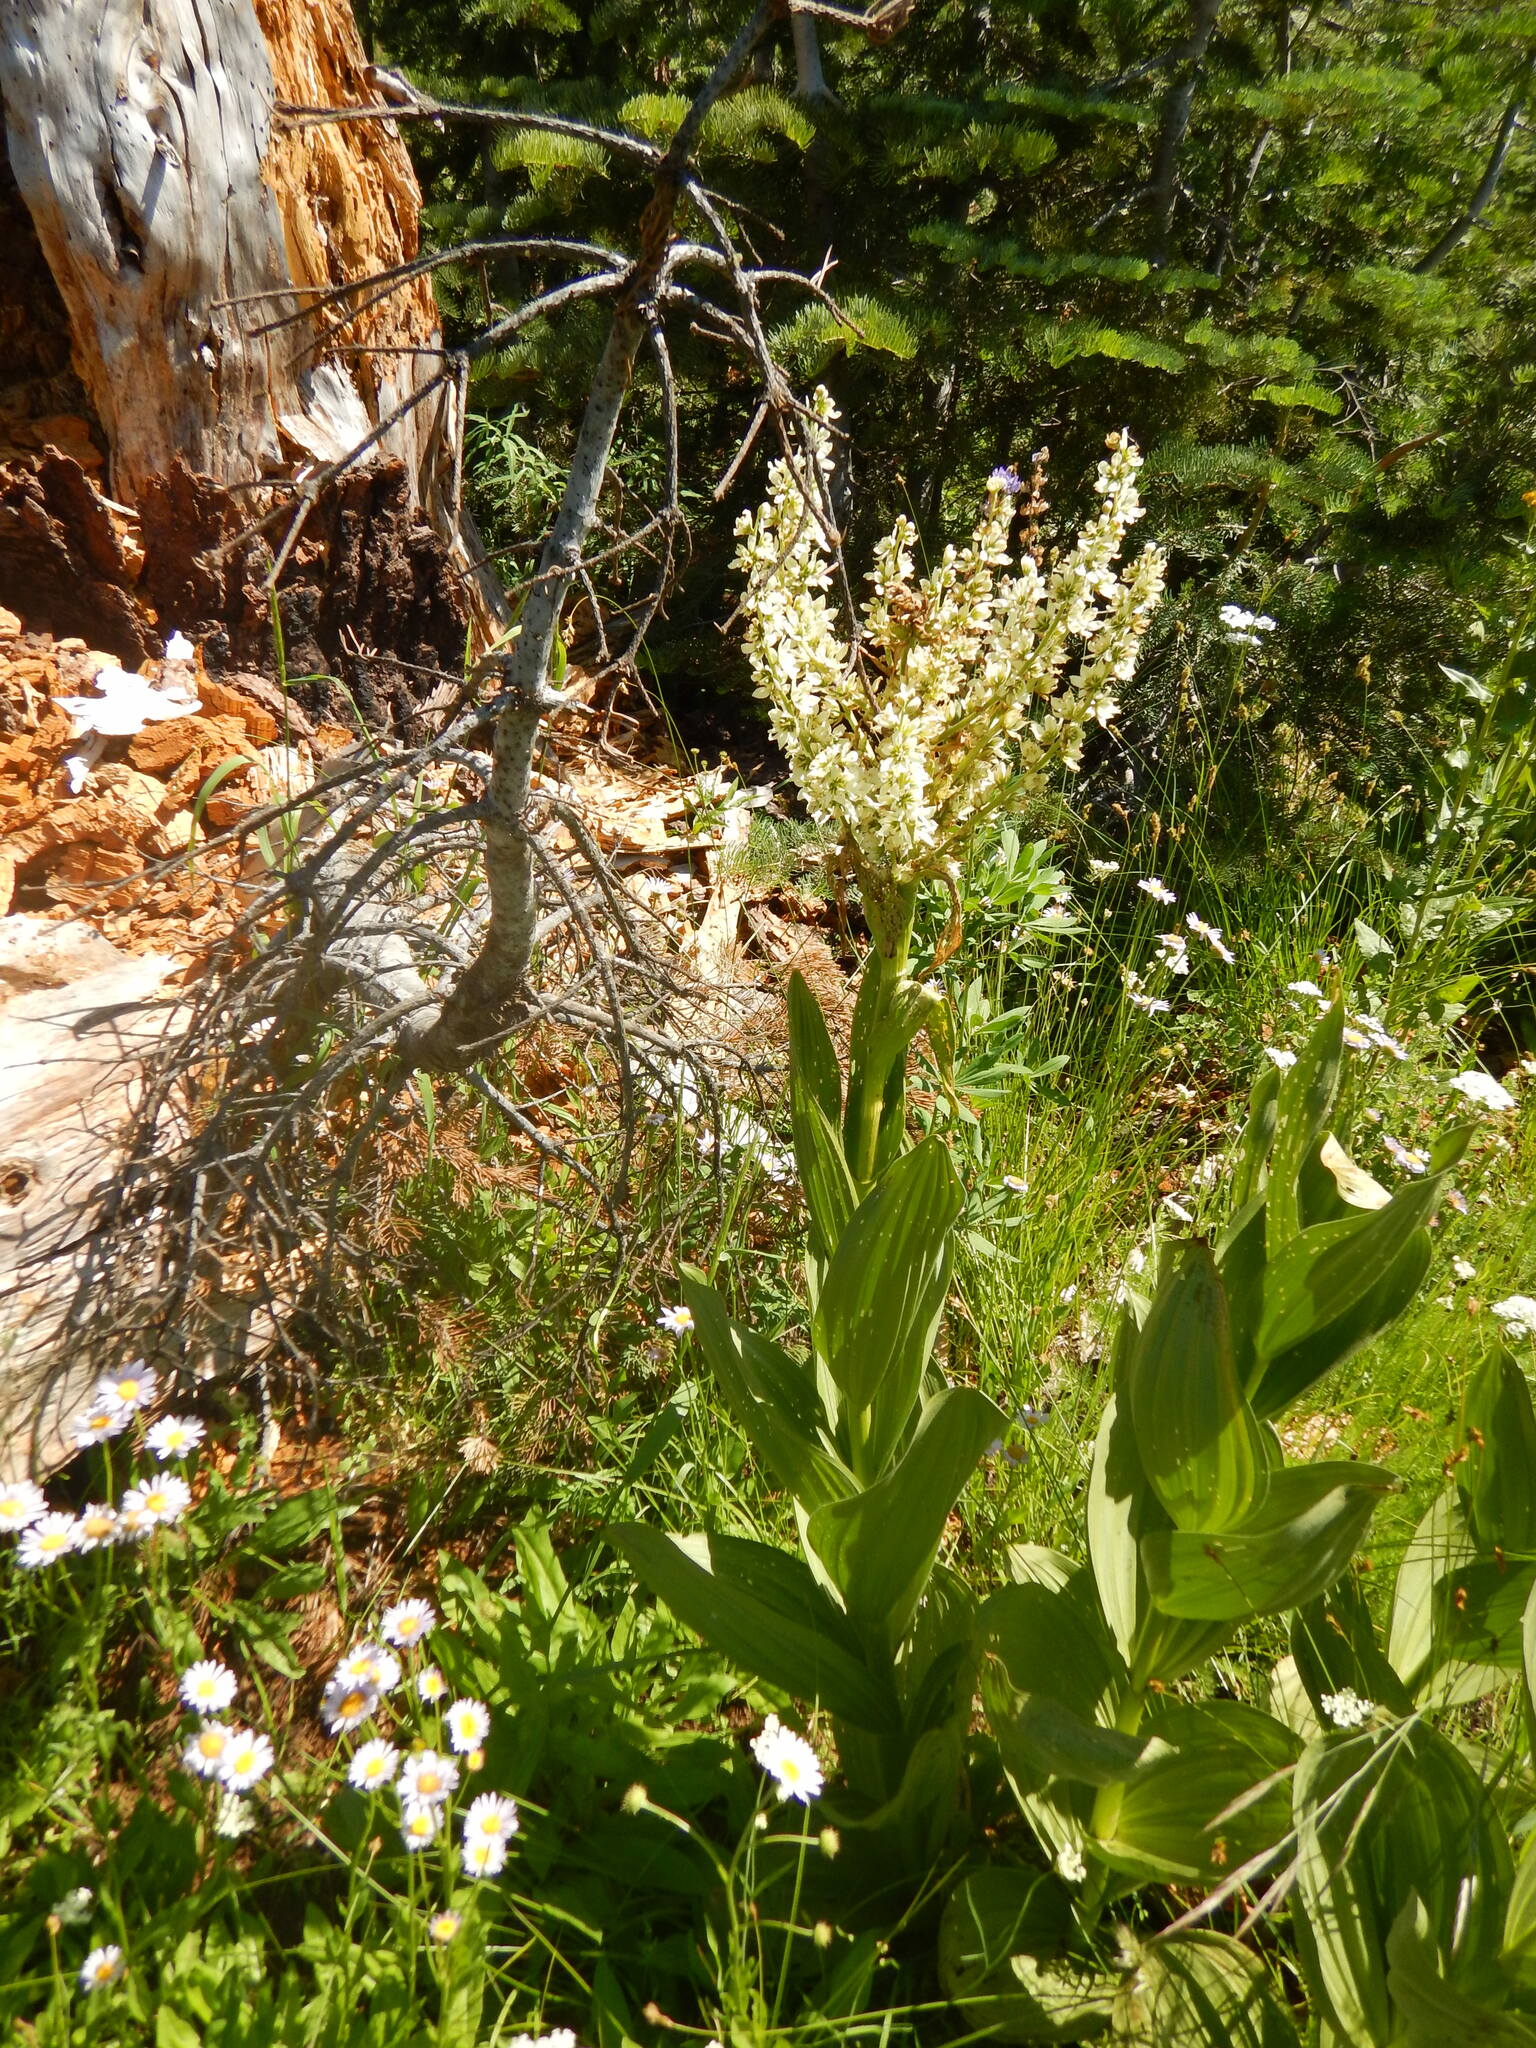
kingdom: Plantae
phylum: Tracheophyta
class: Liliopsida
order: Liliales
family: Melanthiaceae
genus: Veratrum
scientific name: Veratrum californicum
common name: California veratrum
